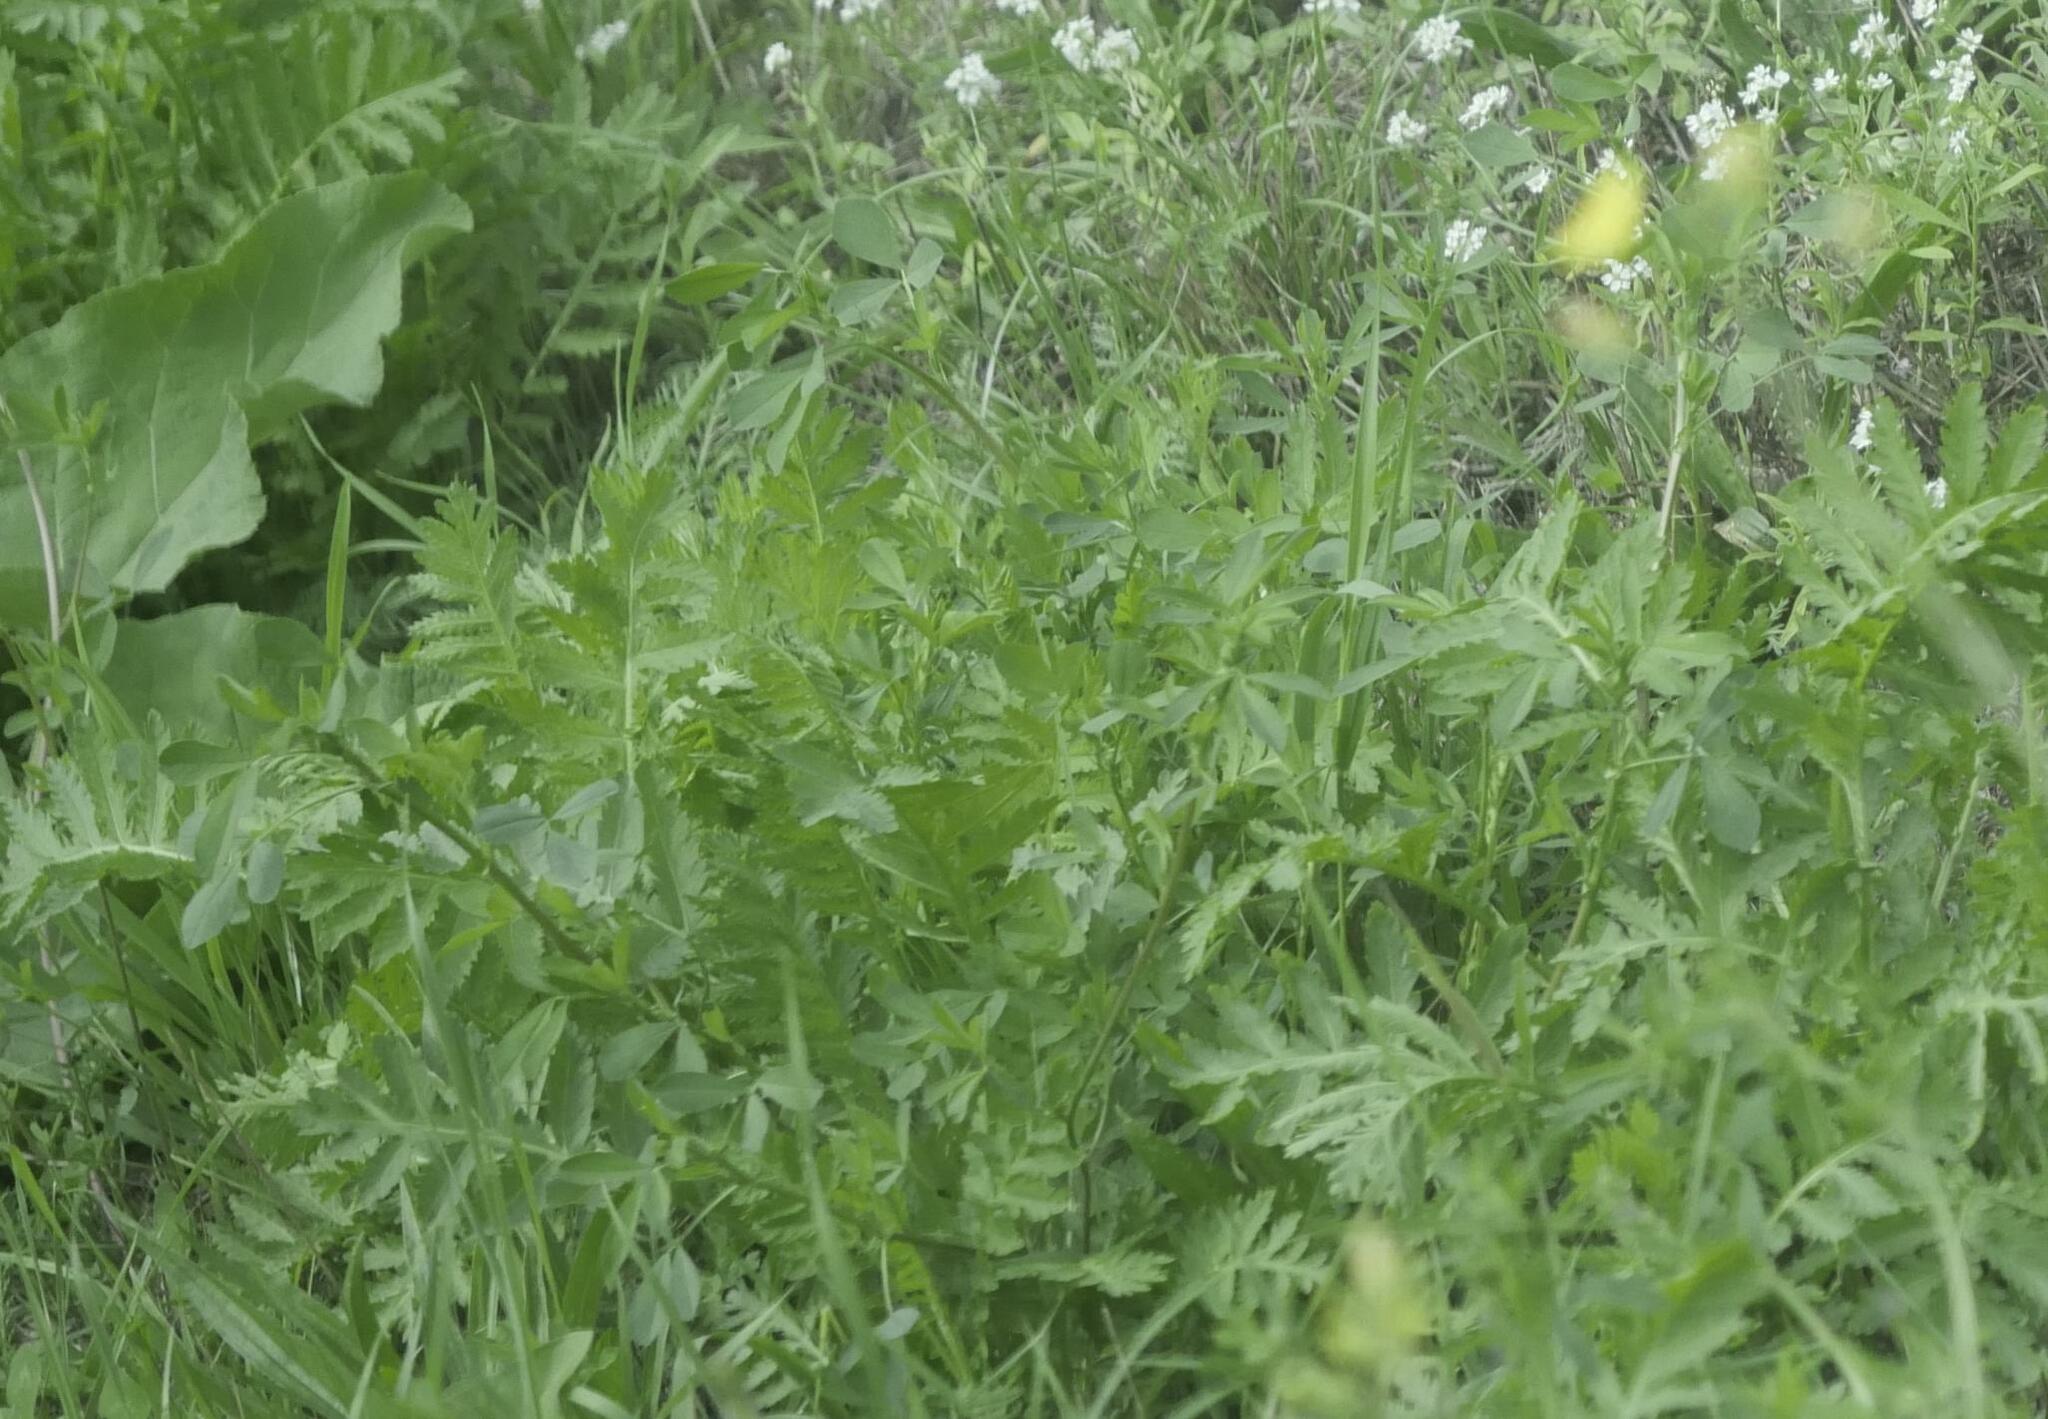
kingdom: Plantae
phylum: Tracheophyta
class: Magnoliopsida
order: Asterales
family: Asteraceae
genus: Tanacetum
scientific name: Tanacetum vulgare
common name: Common tansy
